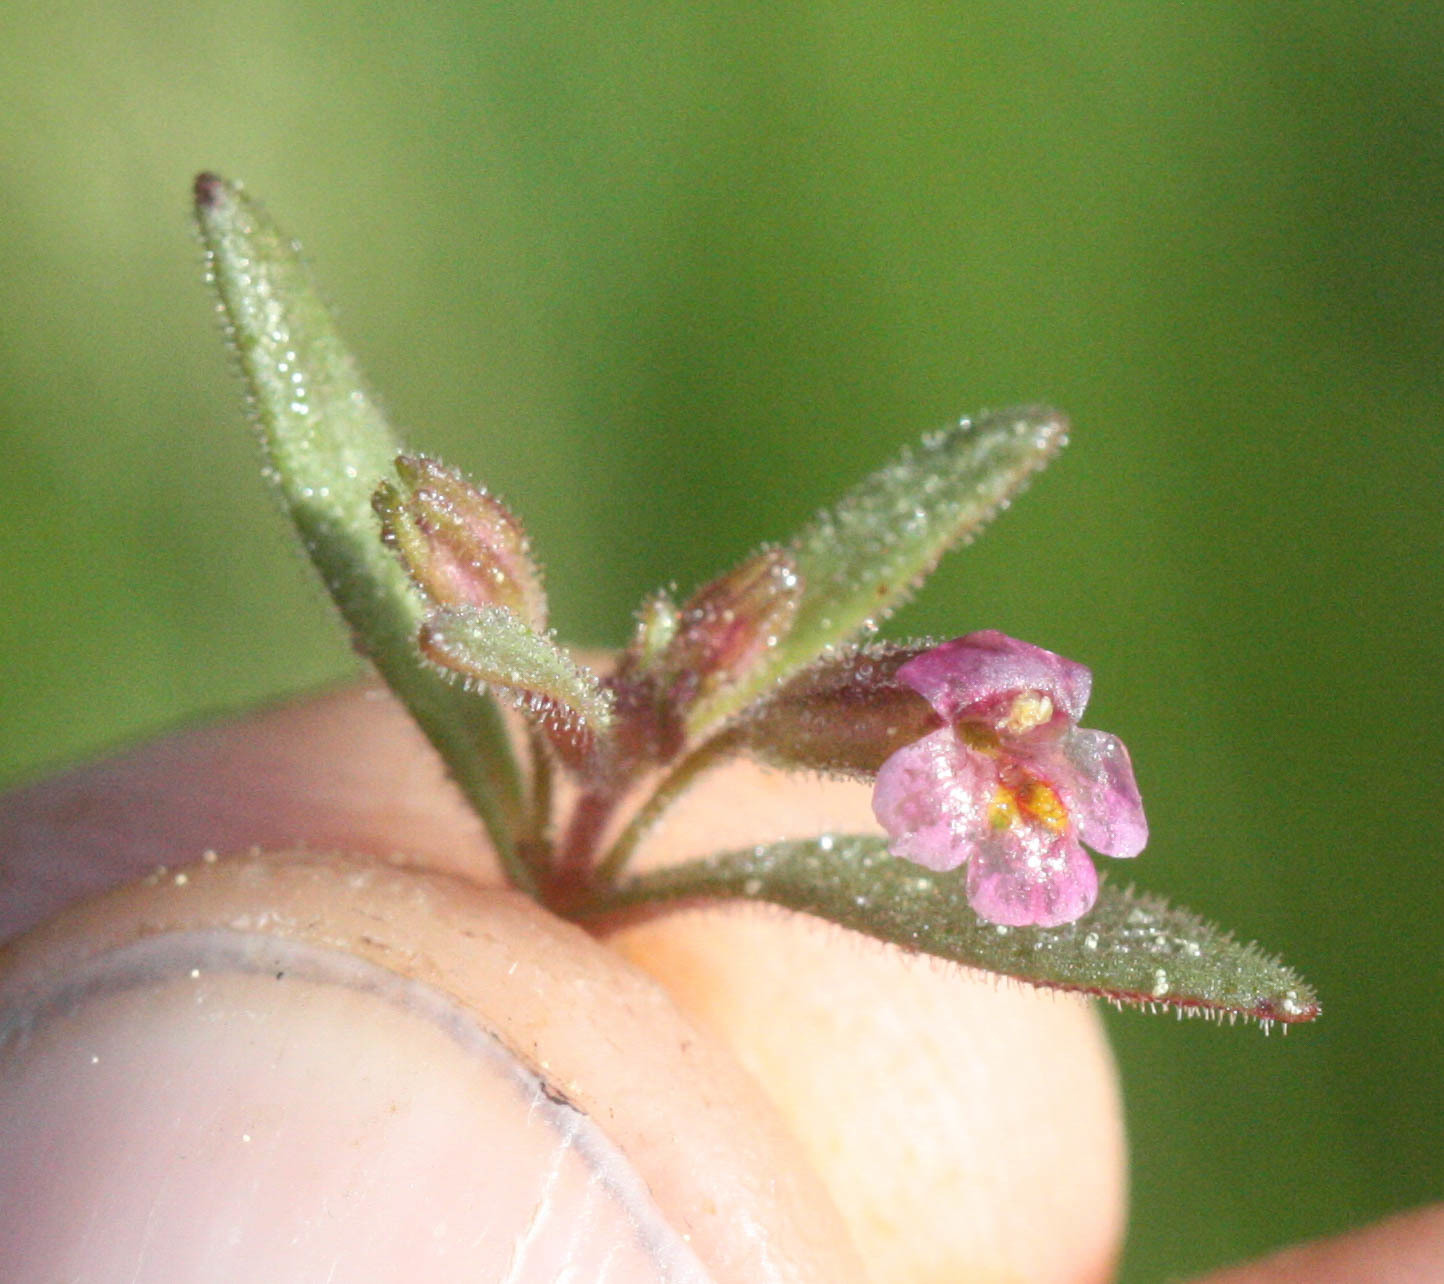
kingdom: Plantae
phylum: Tracheophyta
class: Magnoliopsida
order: Lamiales
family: Phrymaceae
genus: Erythranthe
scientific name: Erythranthe breweri
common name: Brewer's monkeyflower
